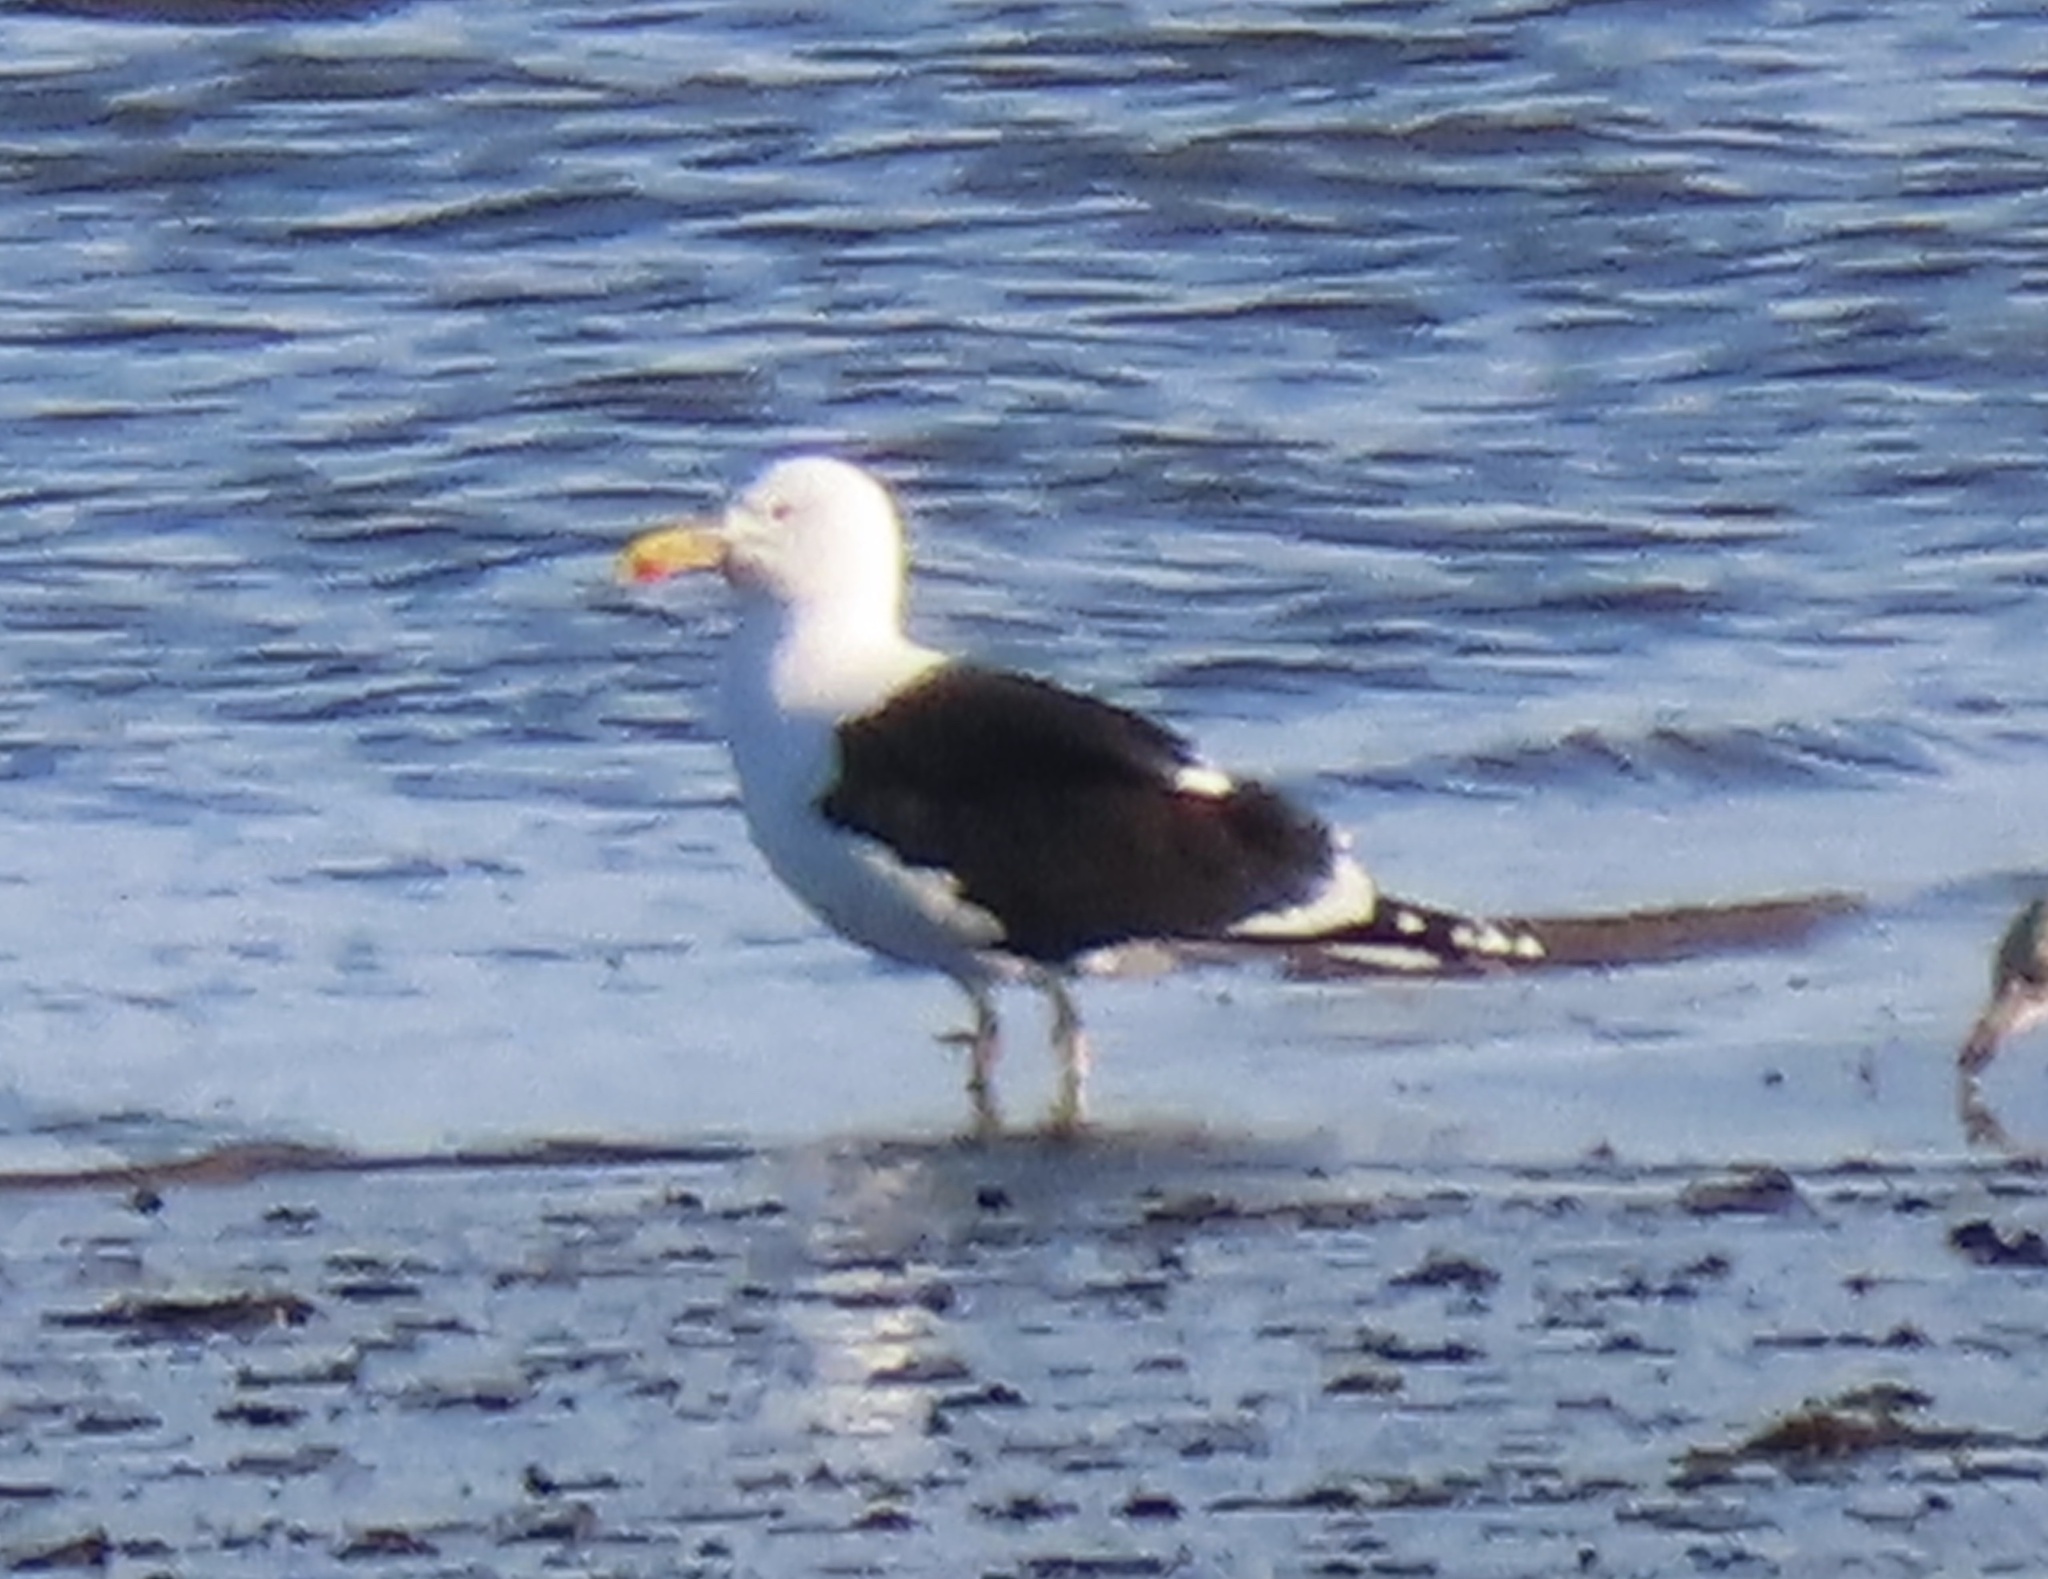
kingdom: Animalia
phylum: Chordata
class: Aves
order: Charadriiformes
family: Laridae
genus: Larus
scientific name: Larus marinus
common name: Great black-backed gull
